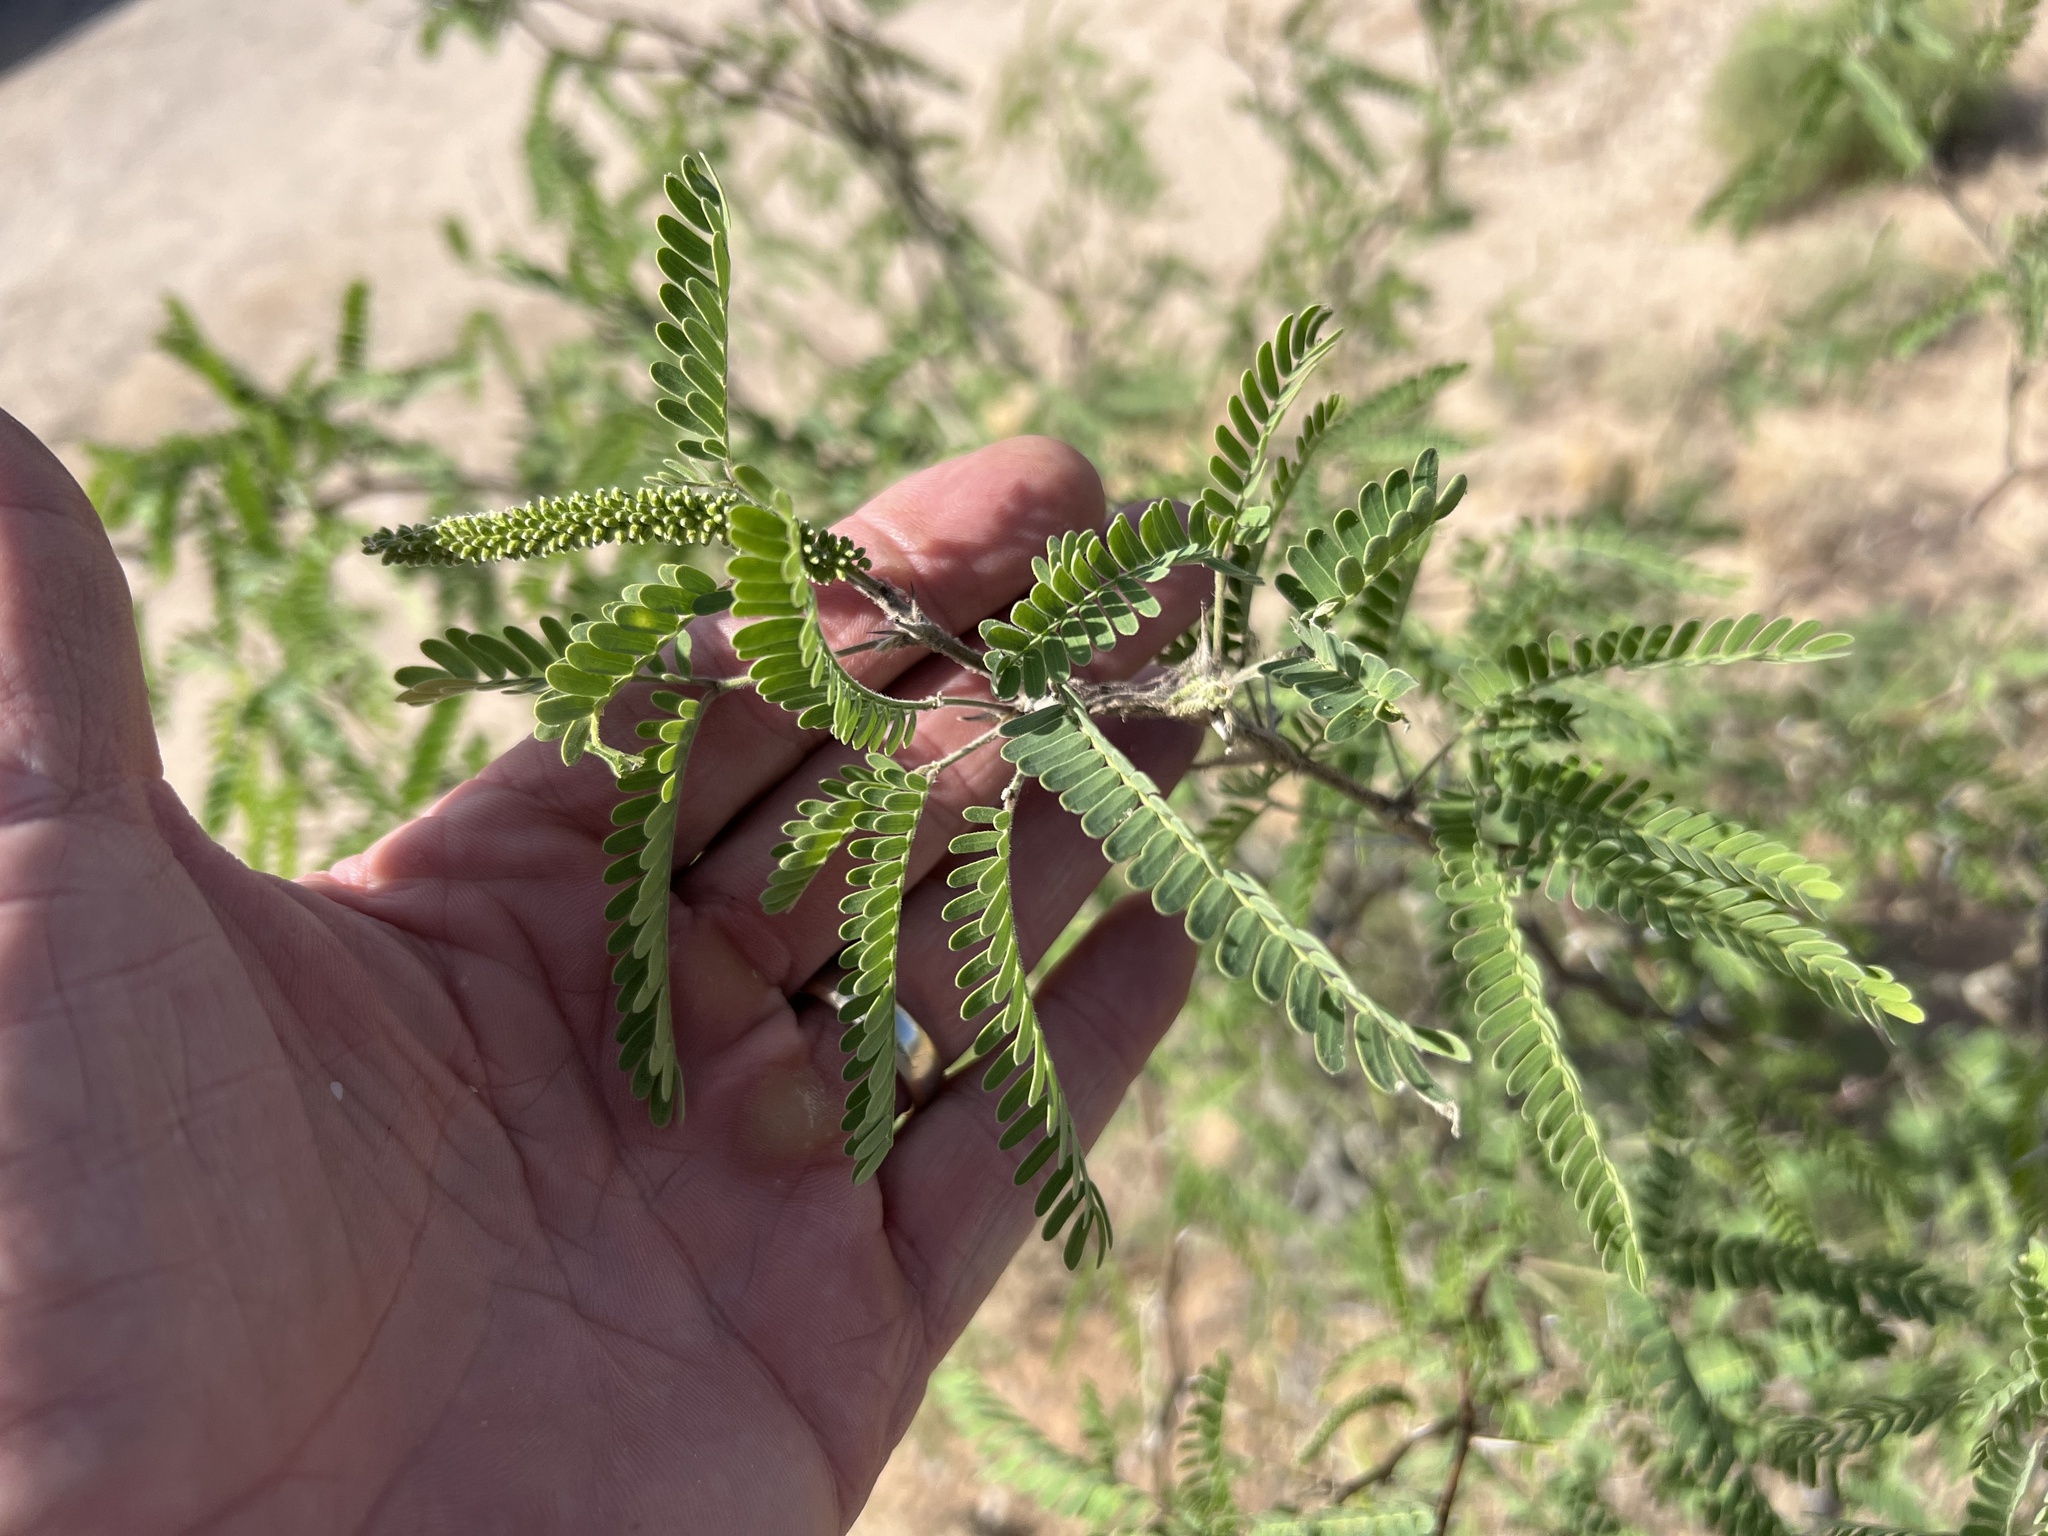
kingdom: Plantae
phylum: Tracheophyta
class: Magnoliopsida
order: Fabales
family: Fabaceae
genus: Prosopis
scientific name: Prosopis velutina
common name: Velvet mesquite
